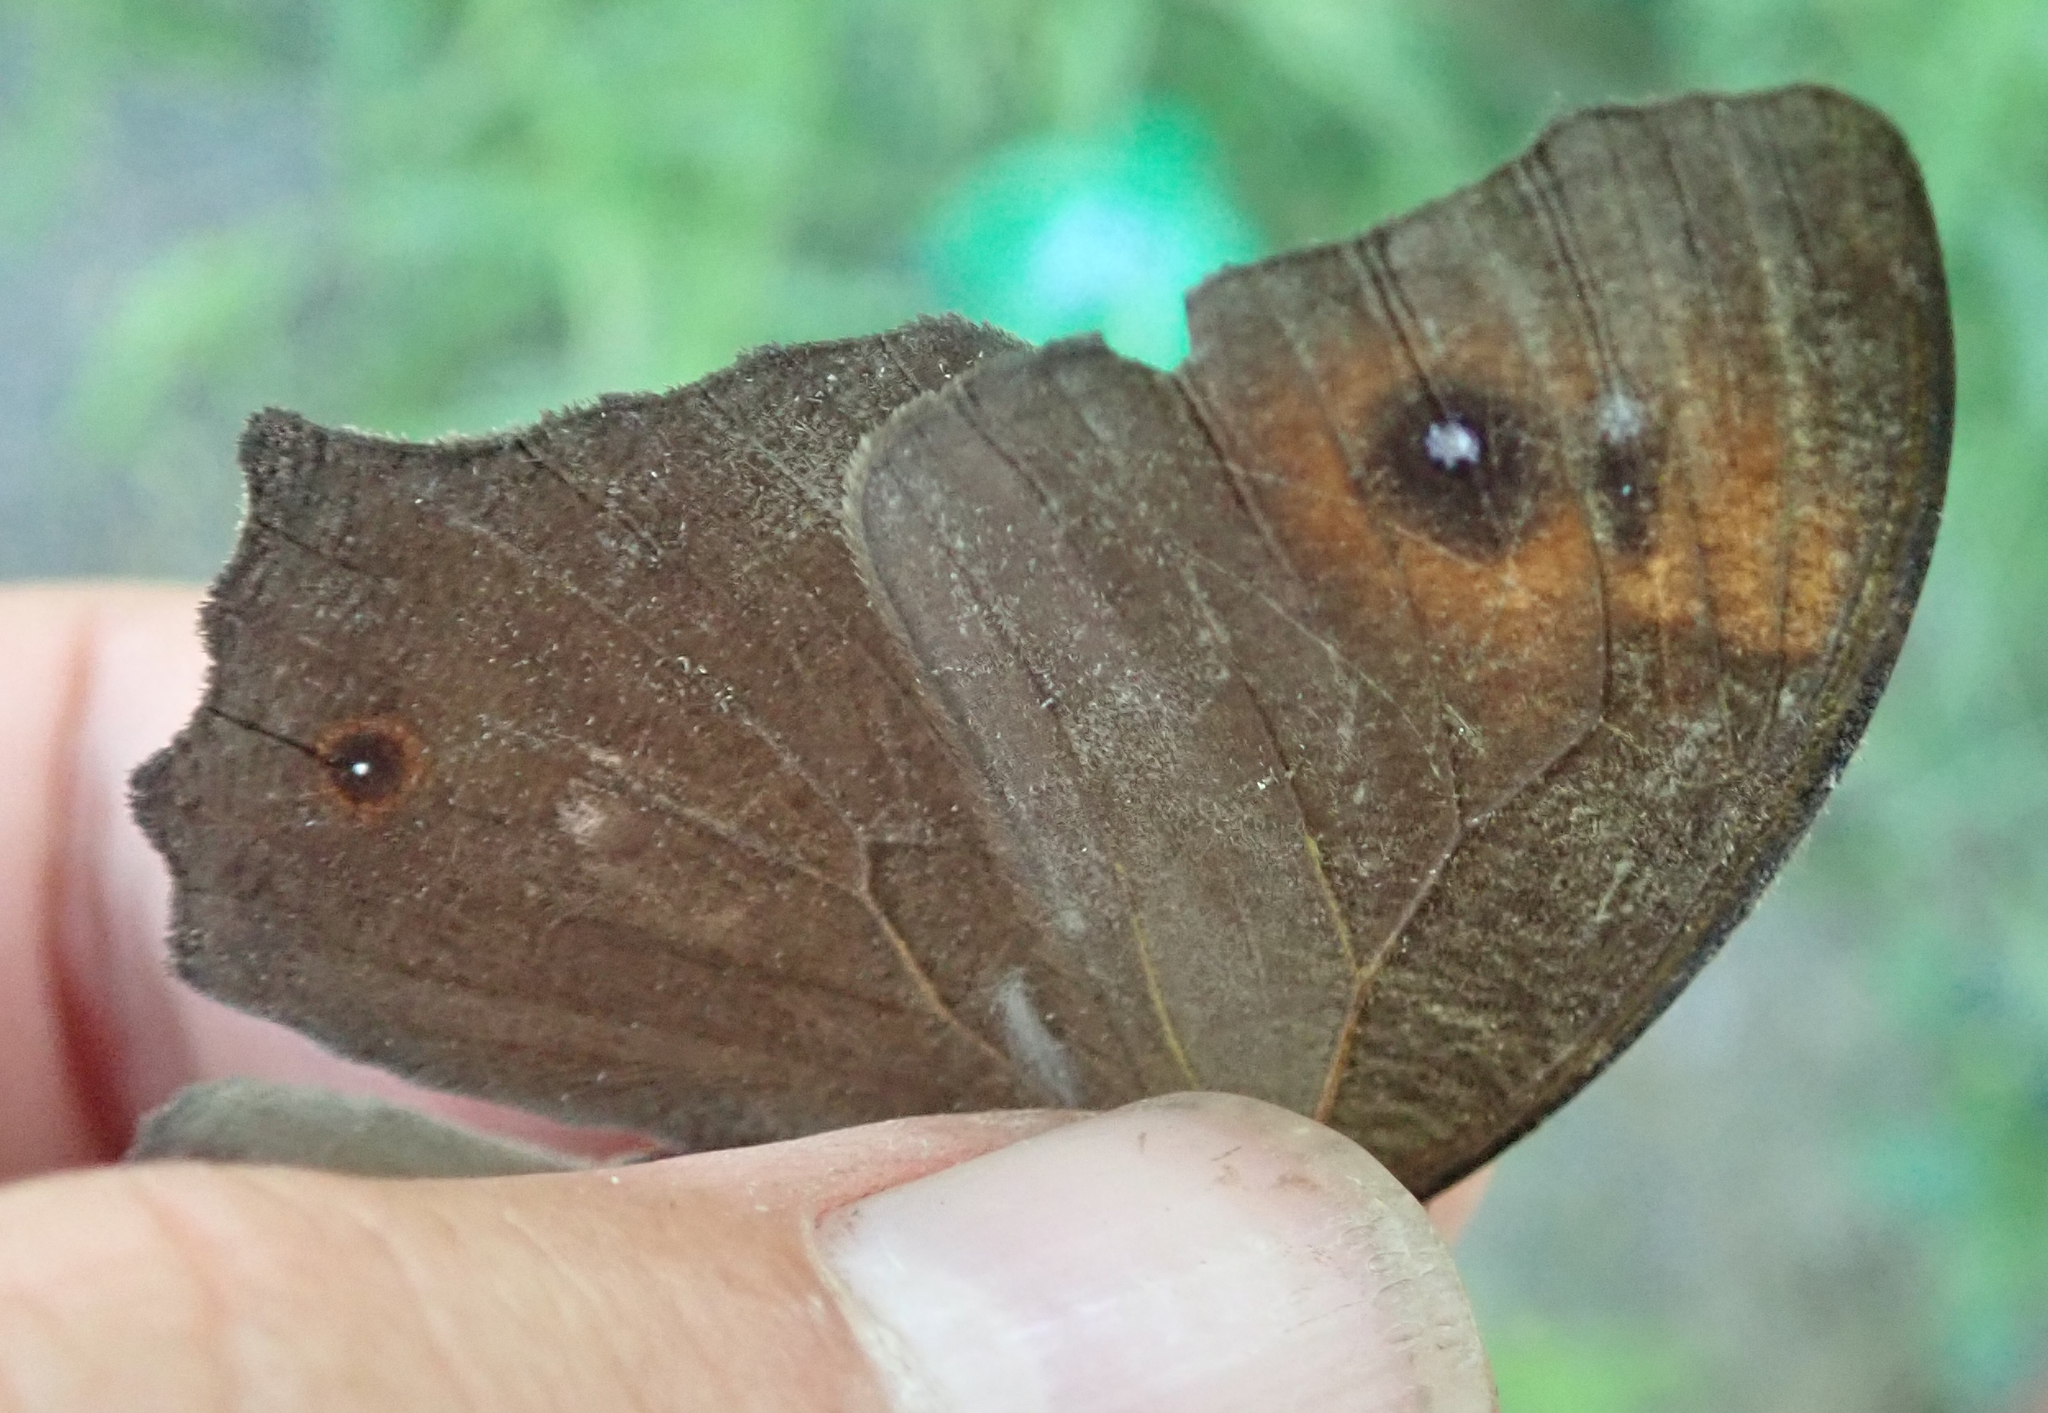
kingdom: Animalia
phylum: Arthropoda
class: Insecta
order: Lepidoptera
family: Nymphalidae
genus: Melanitis
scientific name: Melanitis leda
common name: Twilight brown
